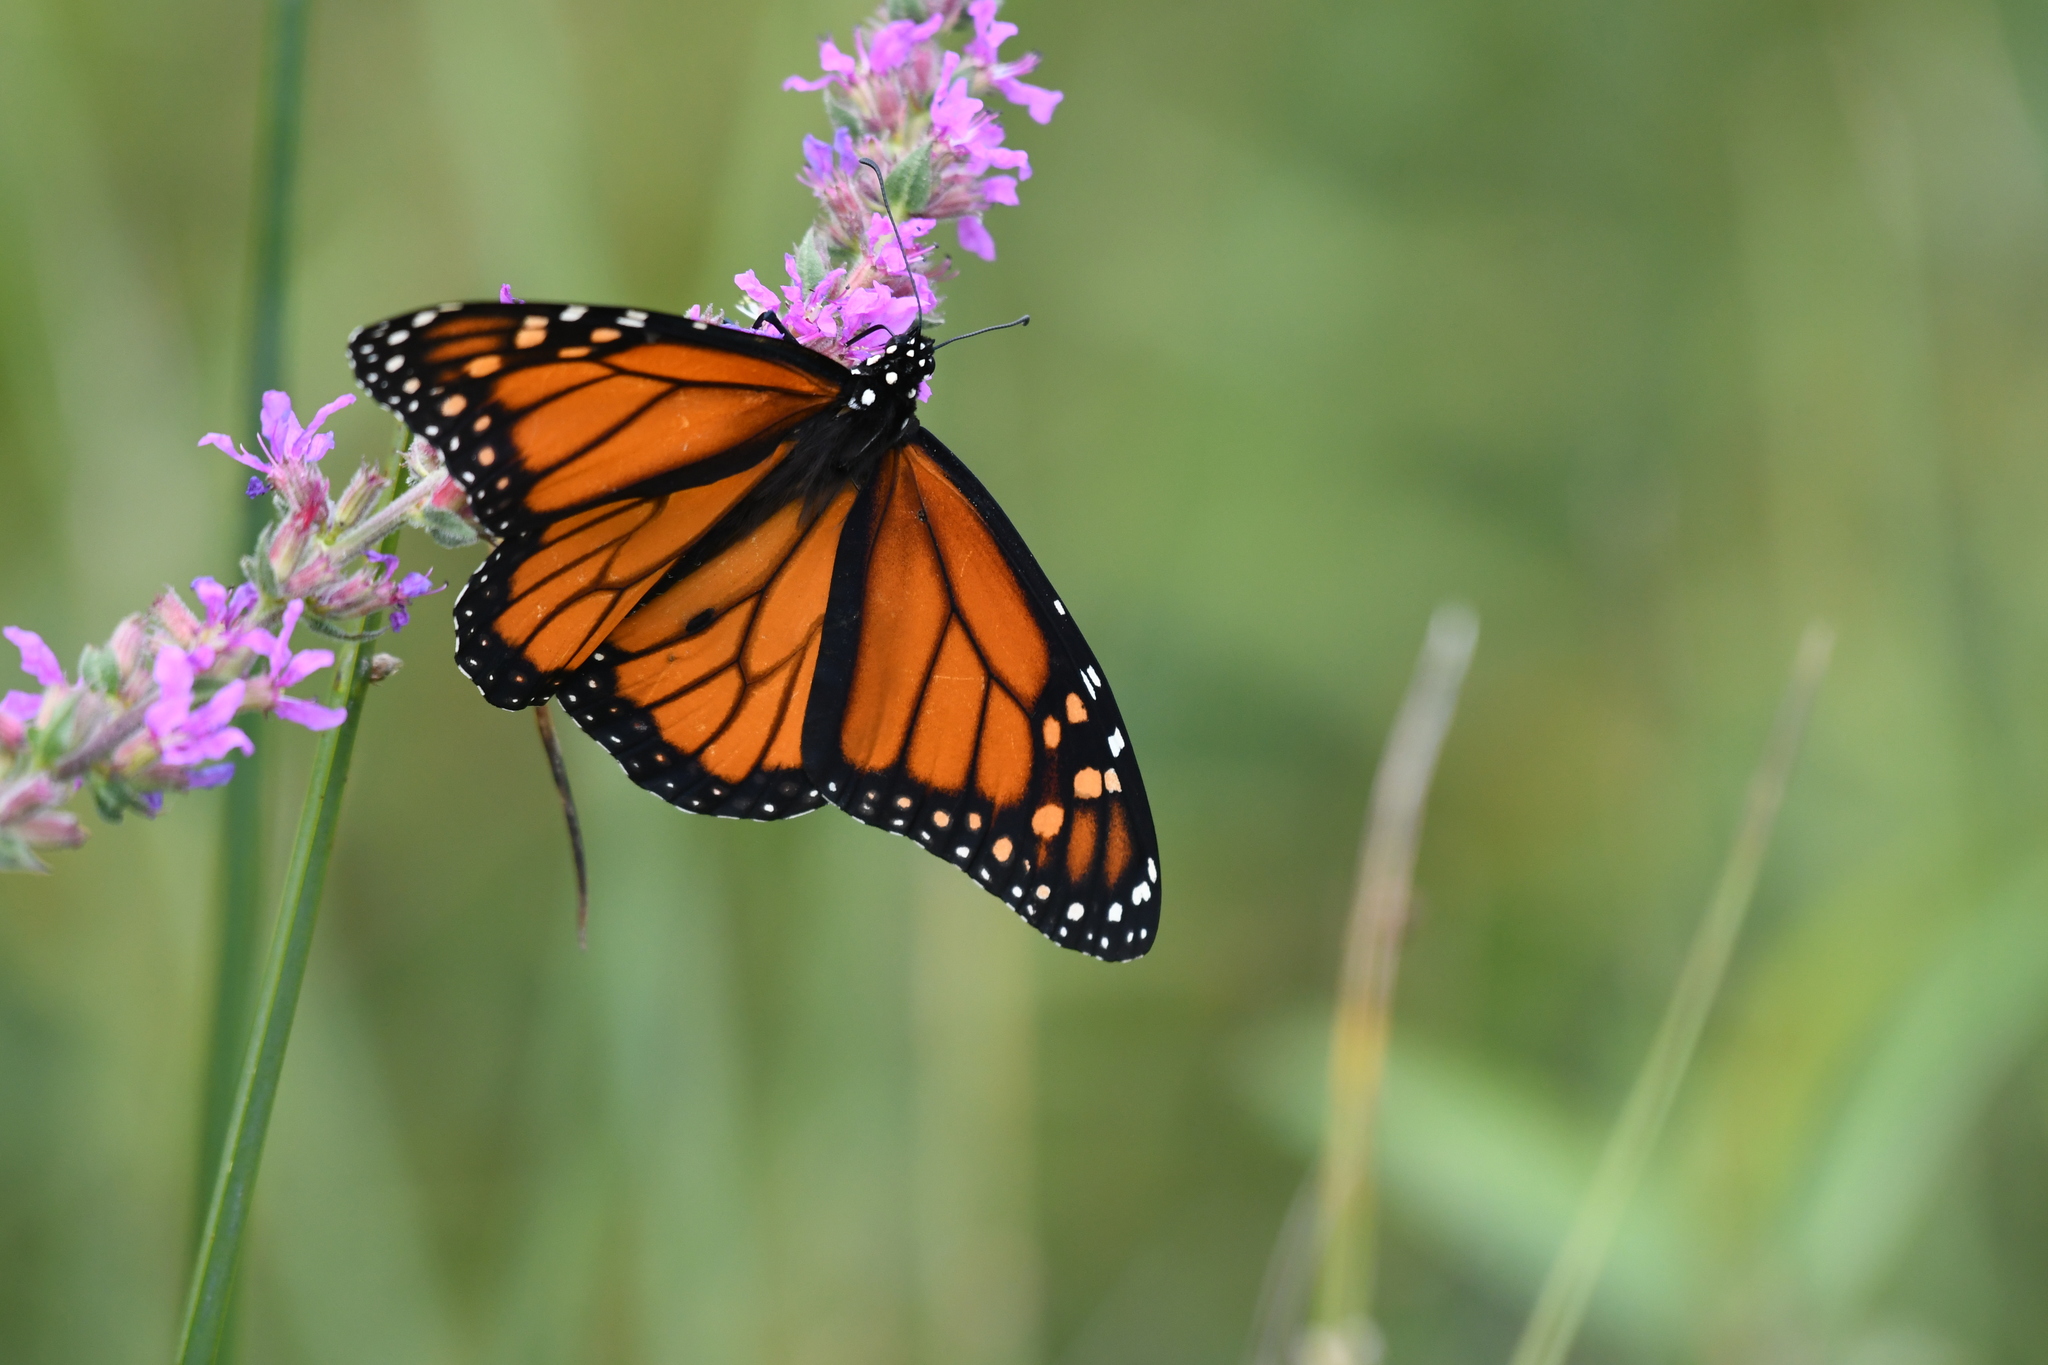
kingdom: Animalia
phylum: Arthropoda
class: Insecta
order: Lepidoptera
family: Nymphalidae
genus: Danaus
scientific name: Danaus plexippus
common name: Monarch
